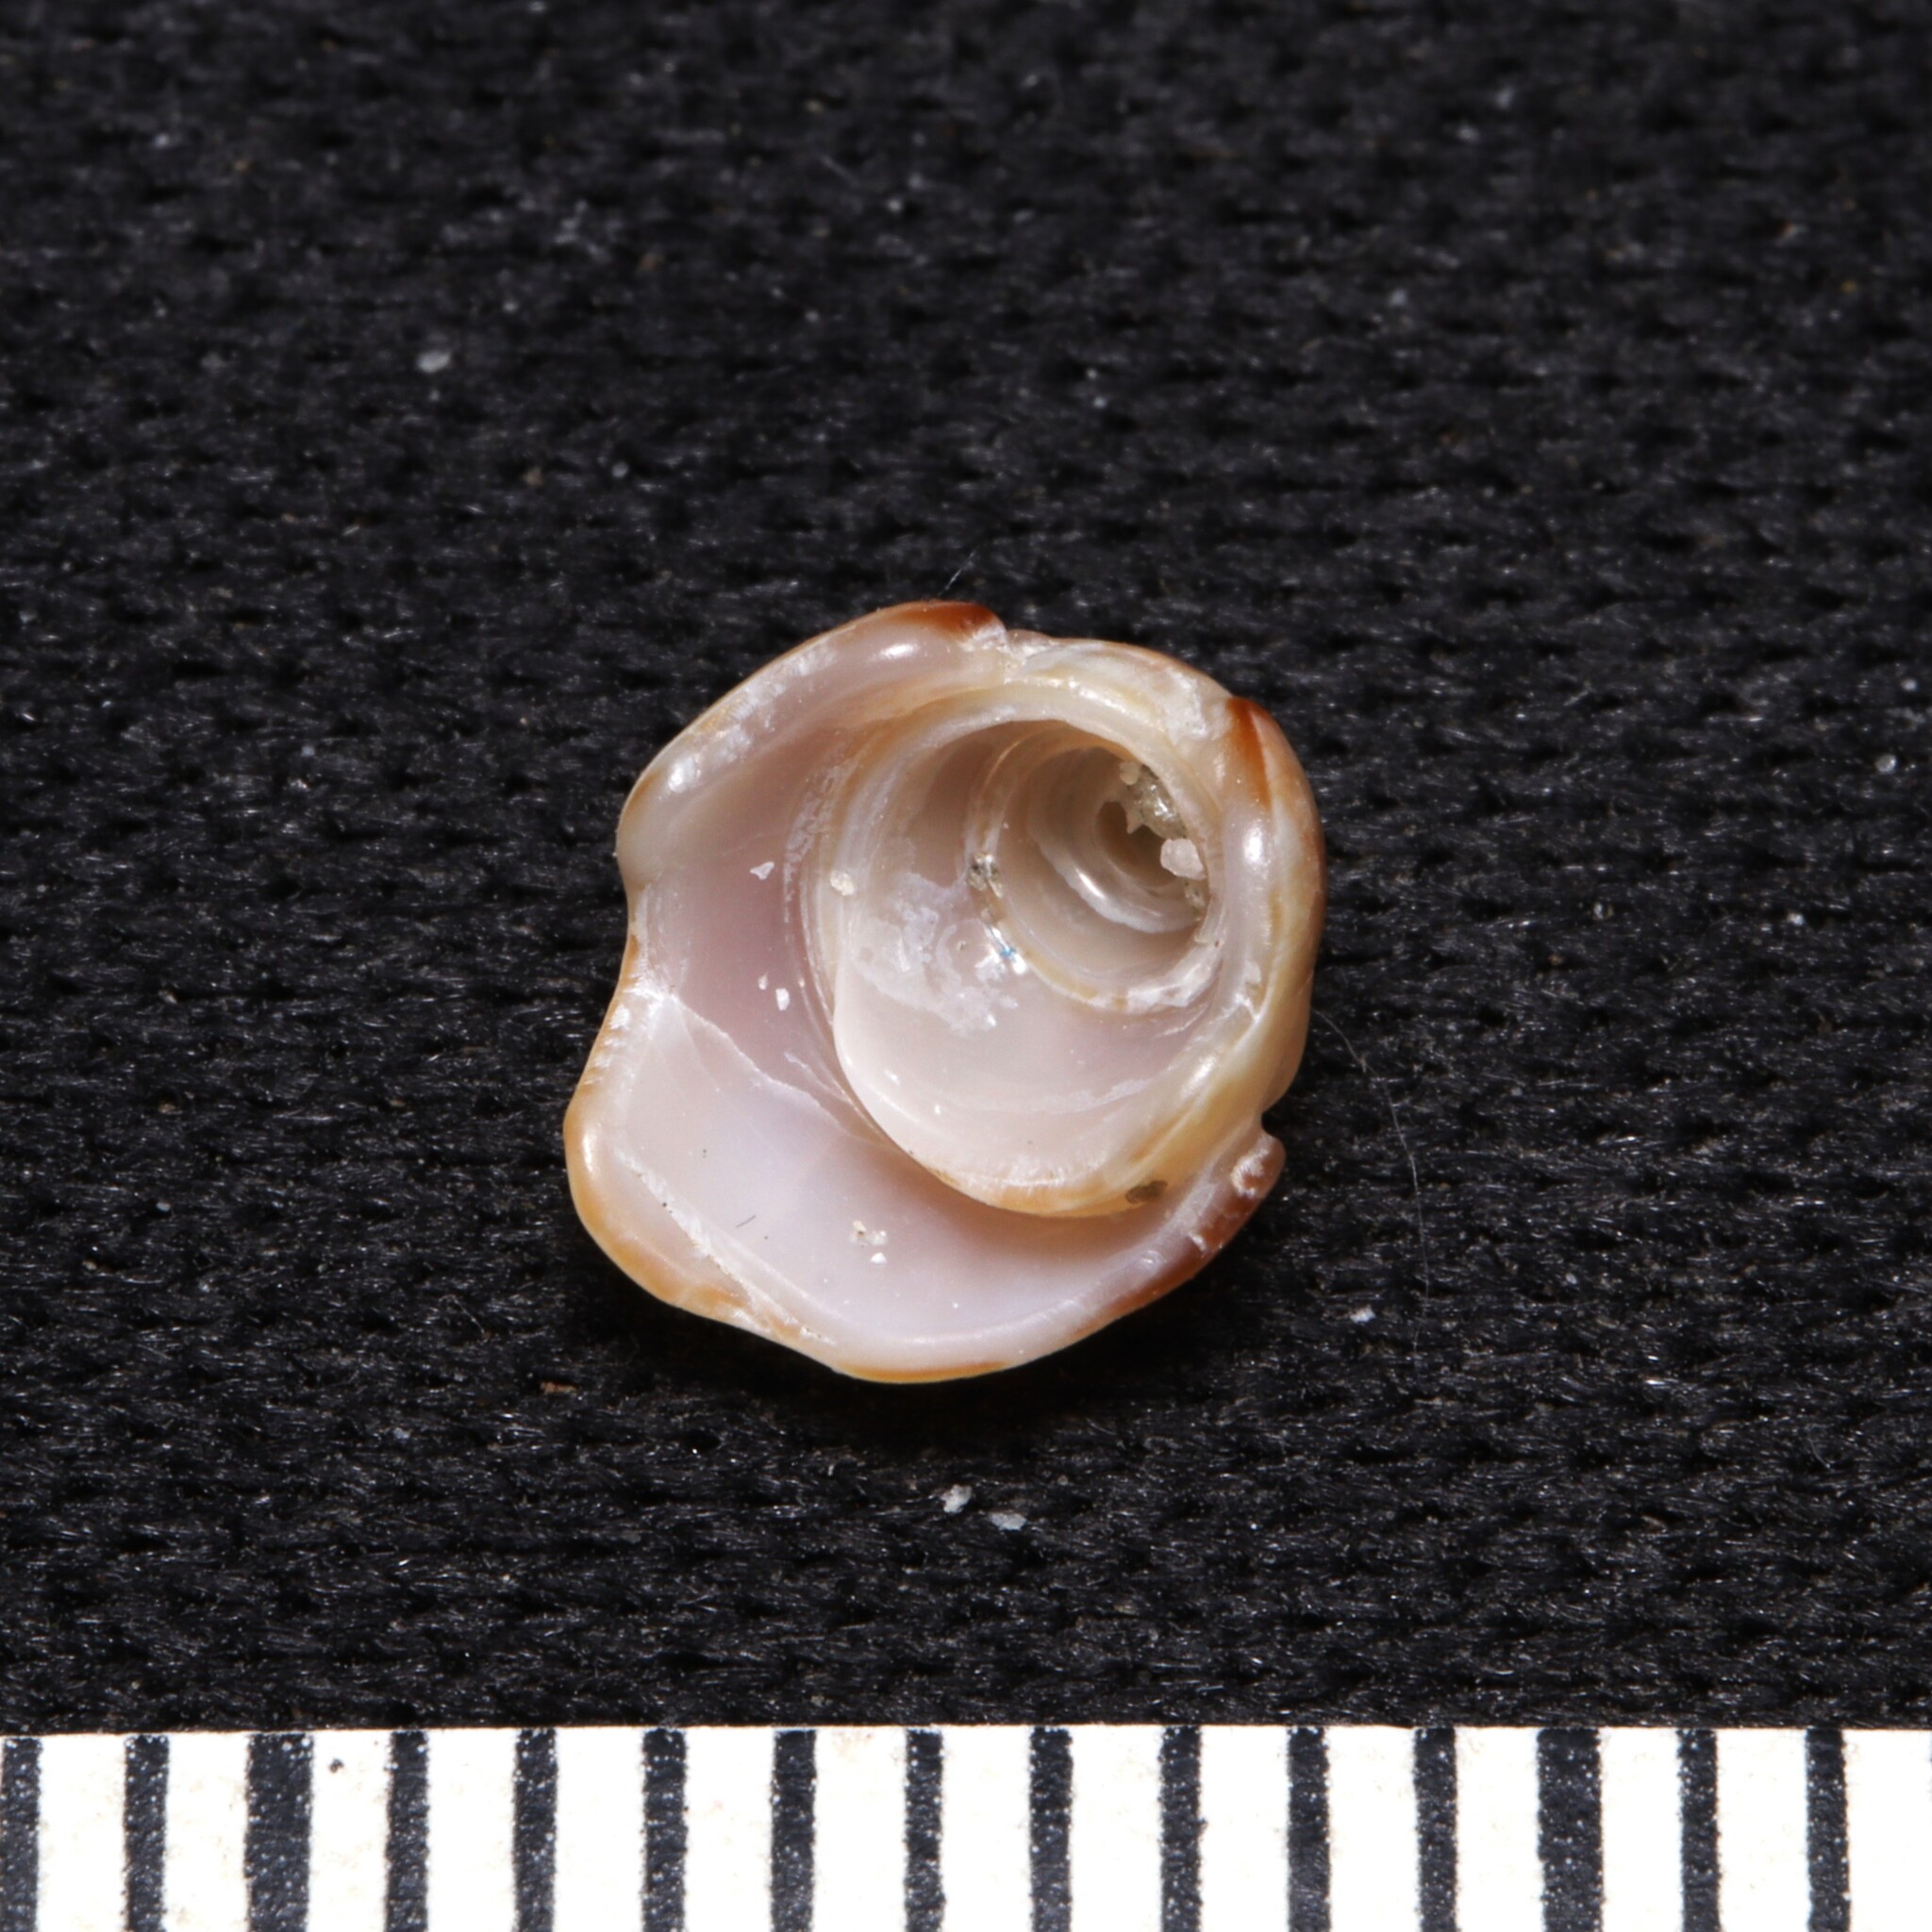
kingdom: Animalia
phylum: Mollusca
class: Gastropoda
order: Neogastropoda
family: Olividae
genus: Oliva
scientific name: Oliva sayana
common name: Lettered olive
